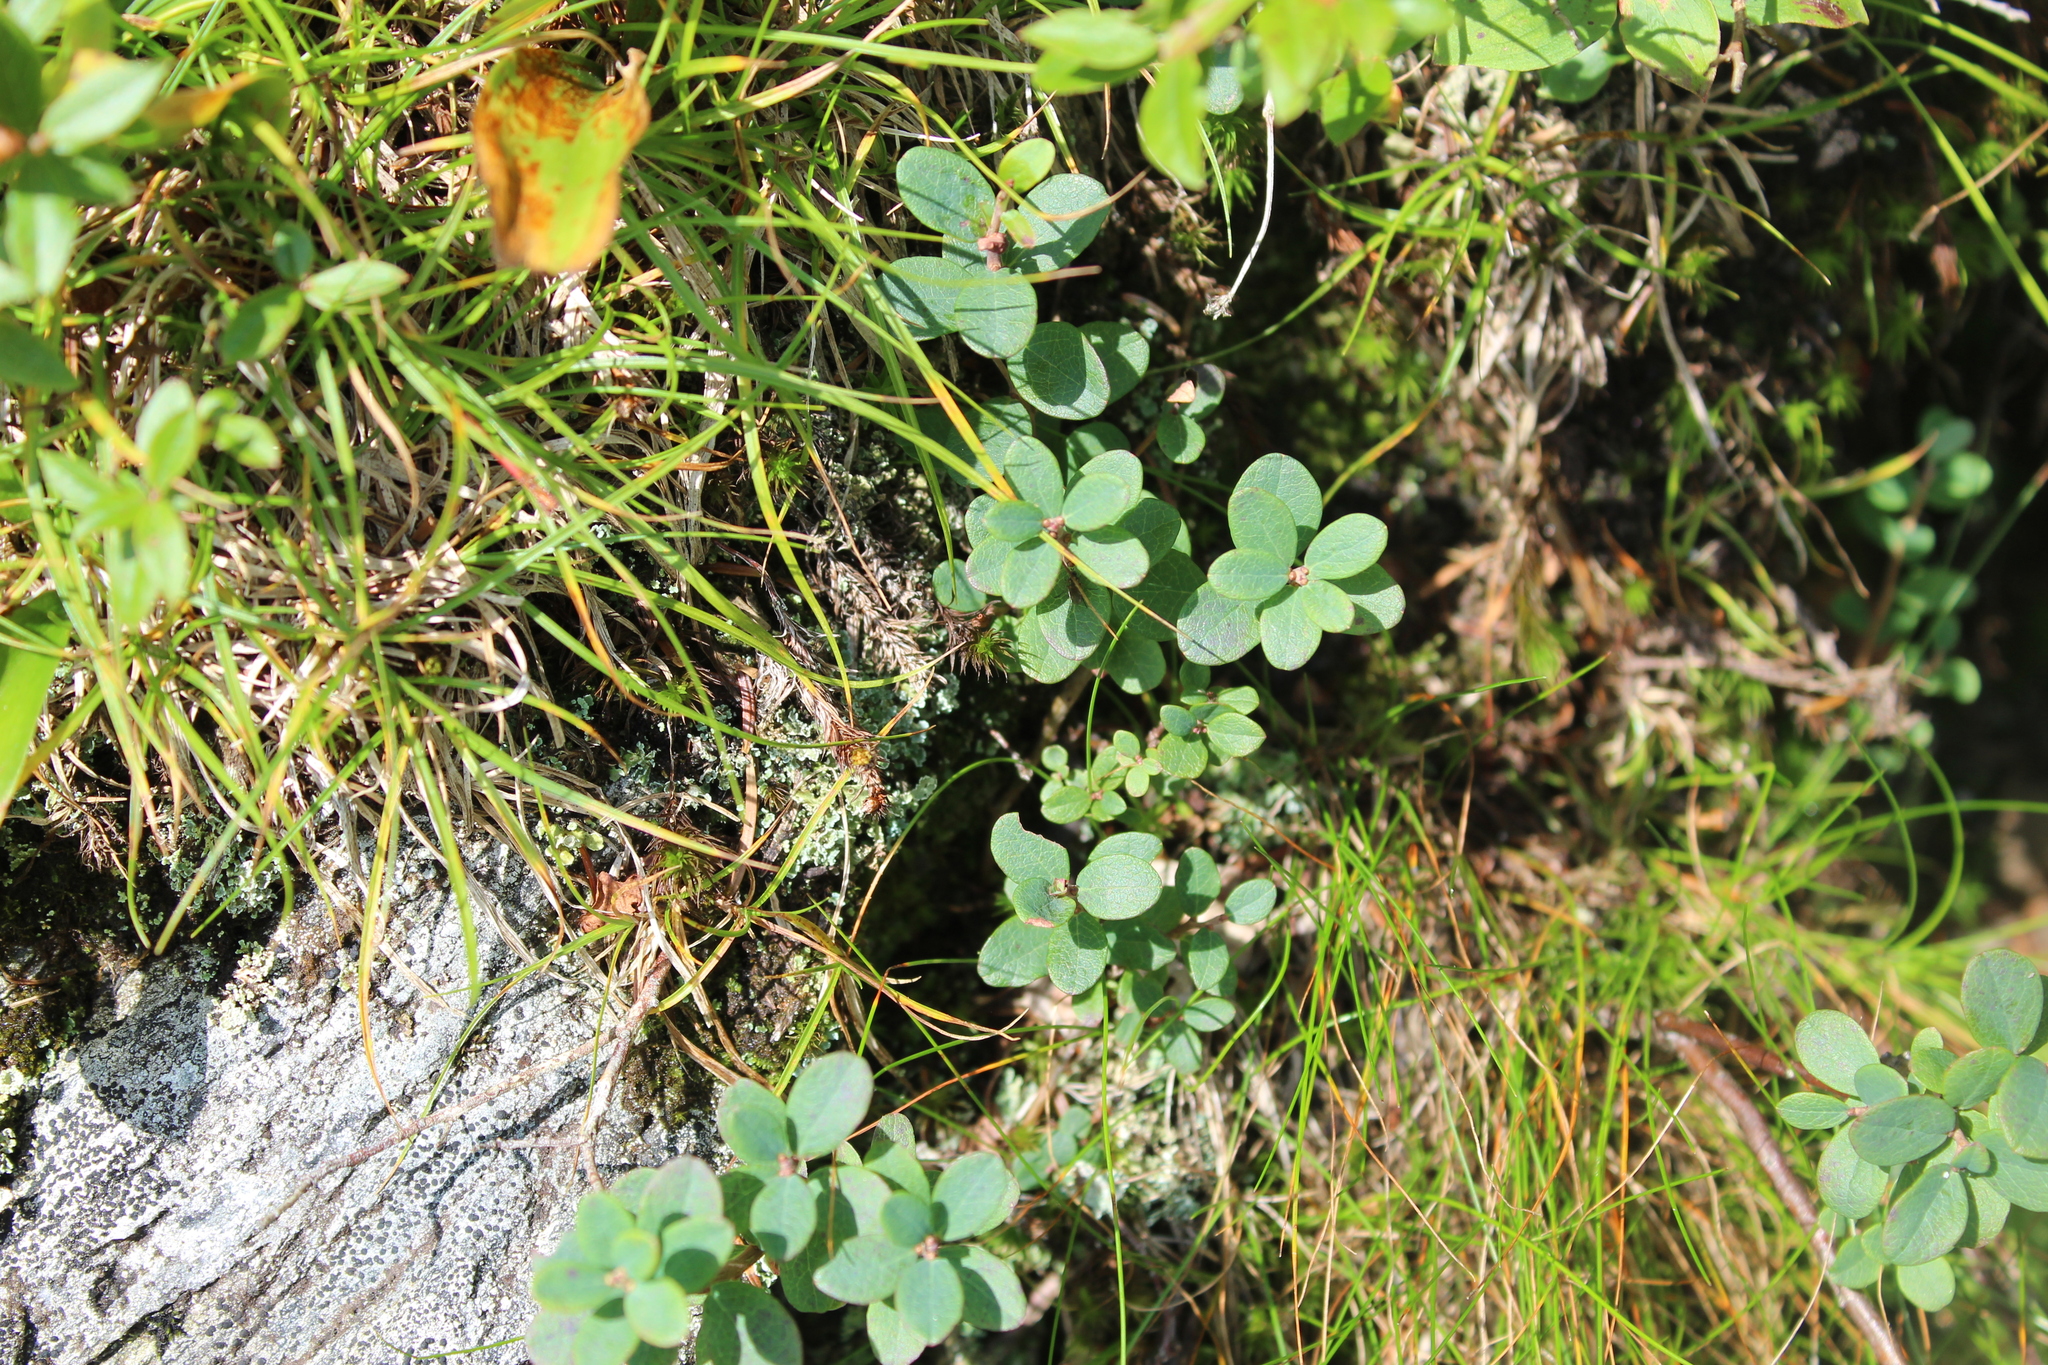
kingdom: Plantae
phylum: Tracheophyta
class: Magnoliopsida
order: Ericales
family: Ericaceae
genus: Vaccinium
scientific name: Vaccinium uliginosum
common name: Bog bilberry
